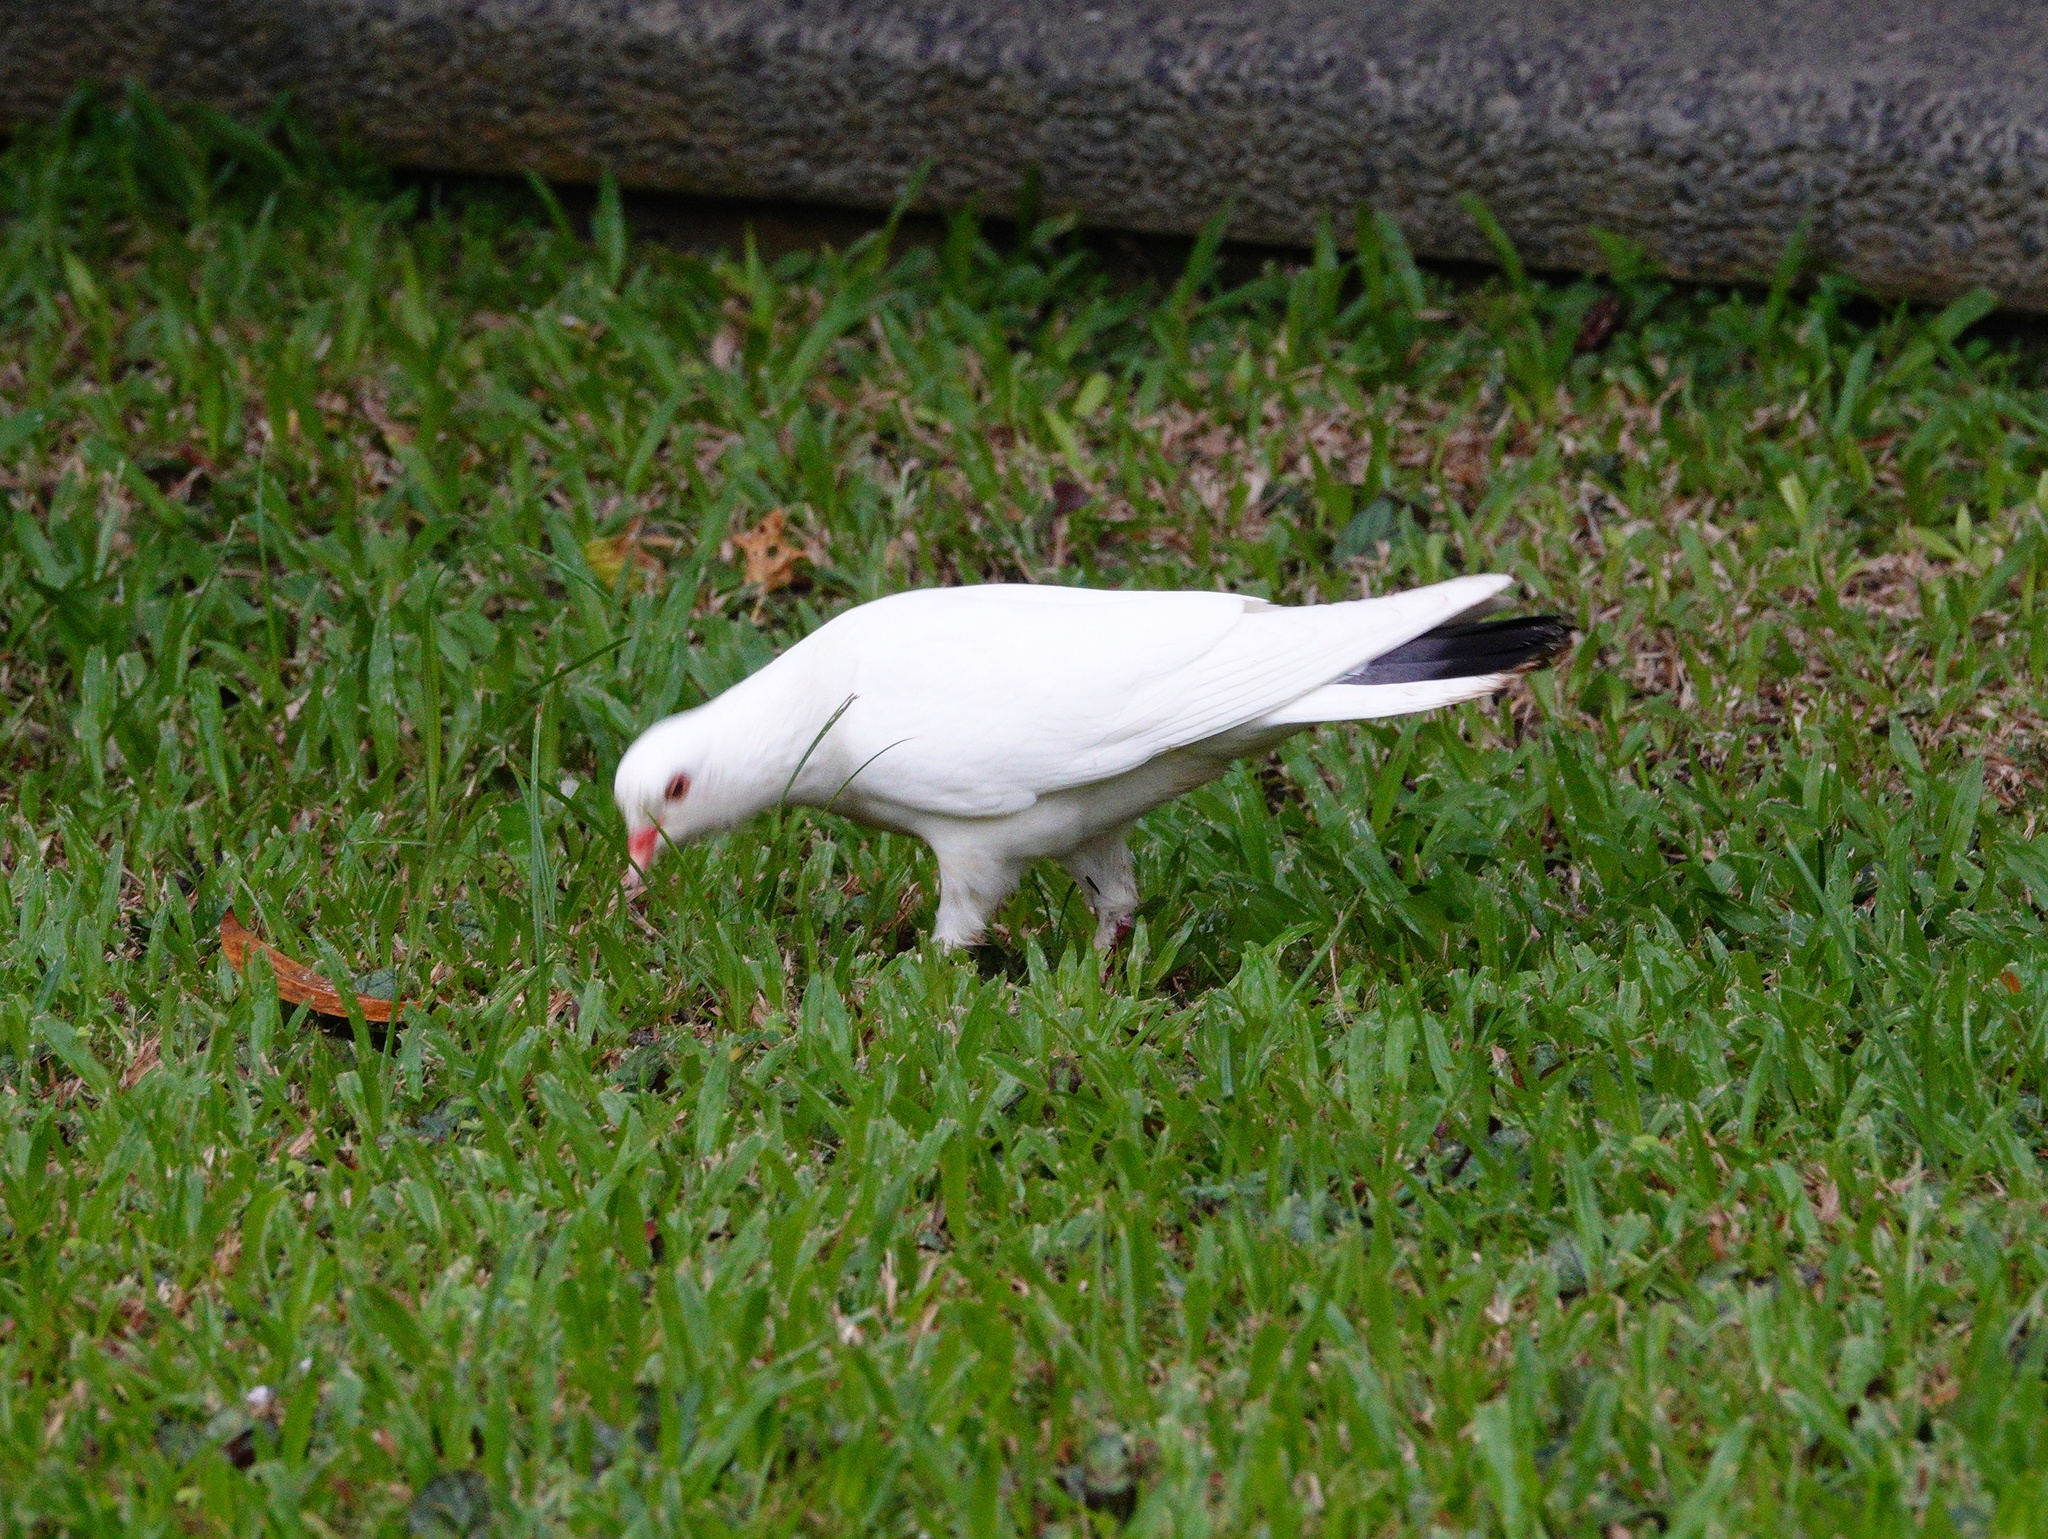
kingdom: Animalia
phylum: Chordata
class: Aves
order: Columbiformes
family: Columbidae
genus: Columba
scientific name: Columba livia
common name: Rock pigeon
